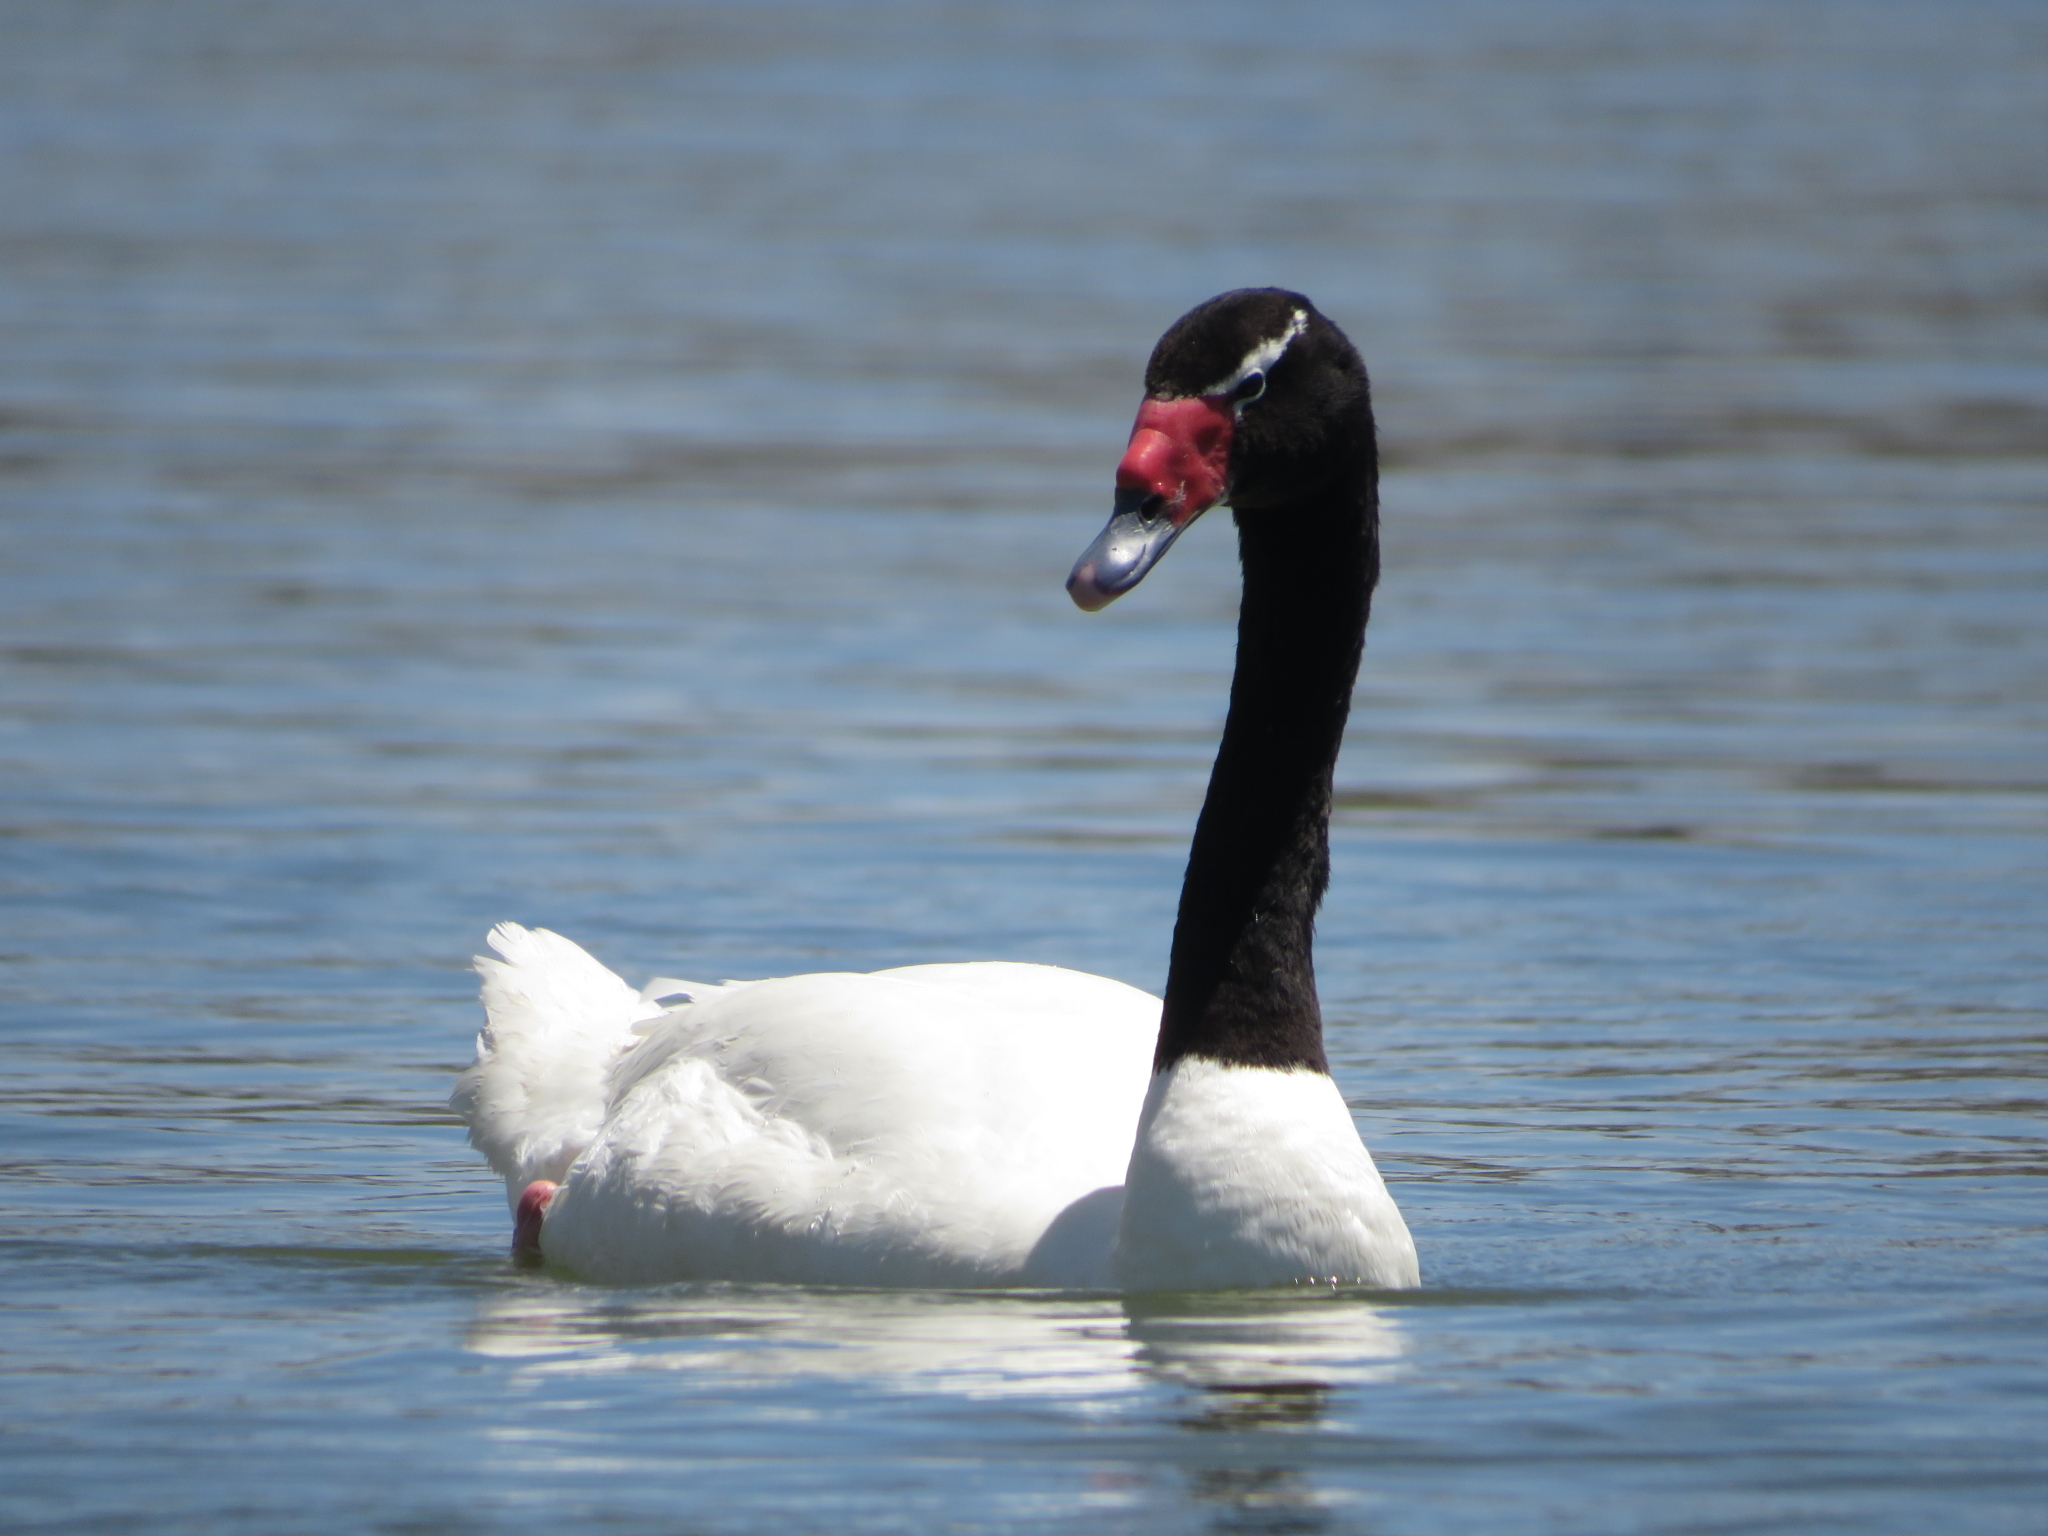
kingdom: Animalia
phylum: Chordata
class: Aves
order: Anseriformes
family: Anatidae
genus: Cygnus
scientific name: Cygnus melancoryphus
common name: Black-necked swan
